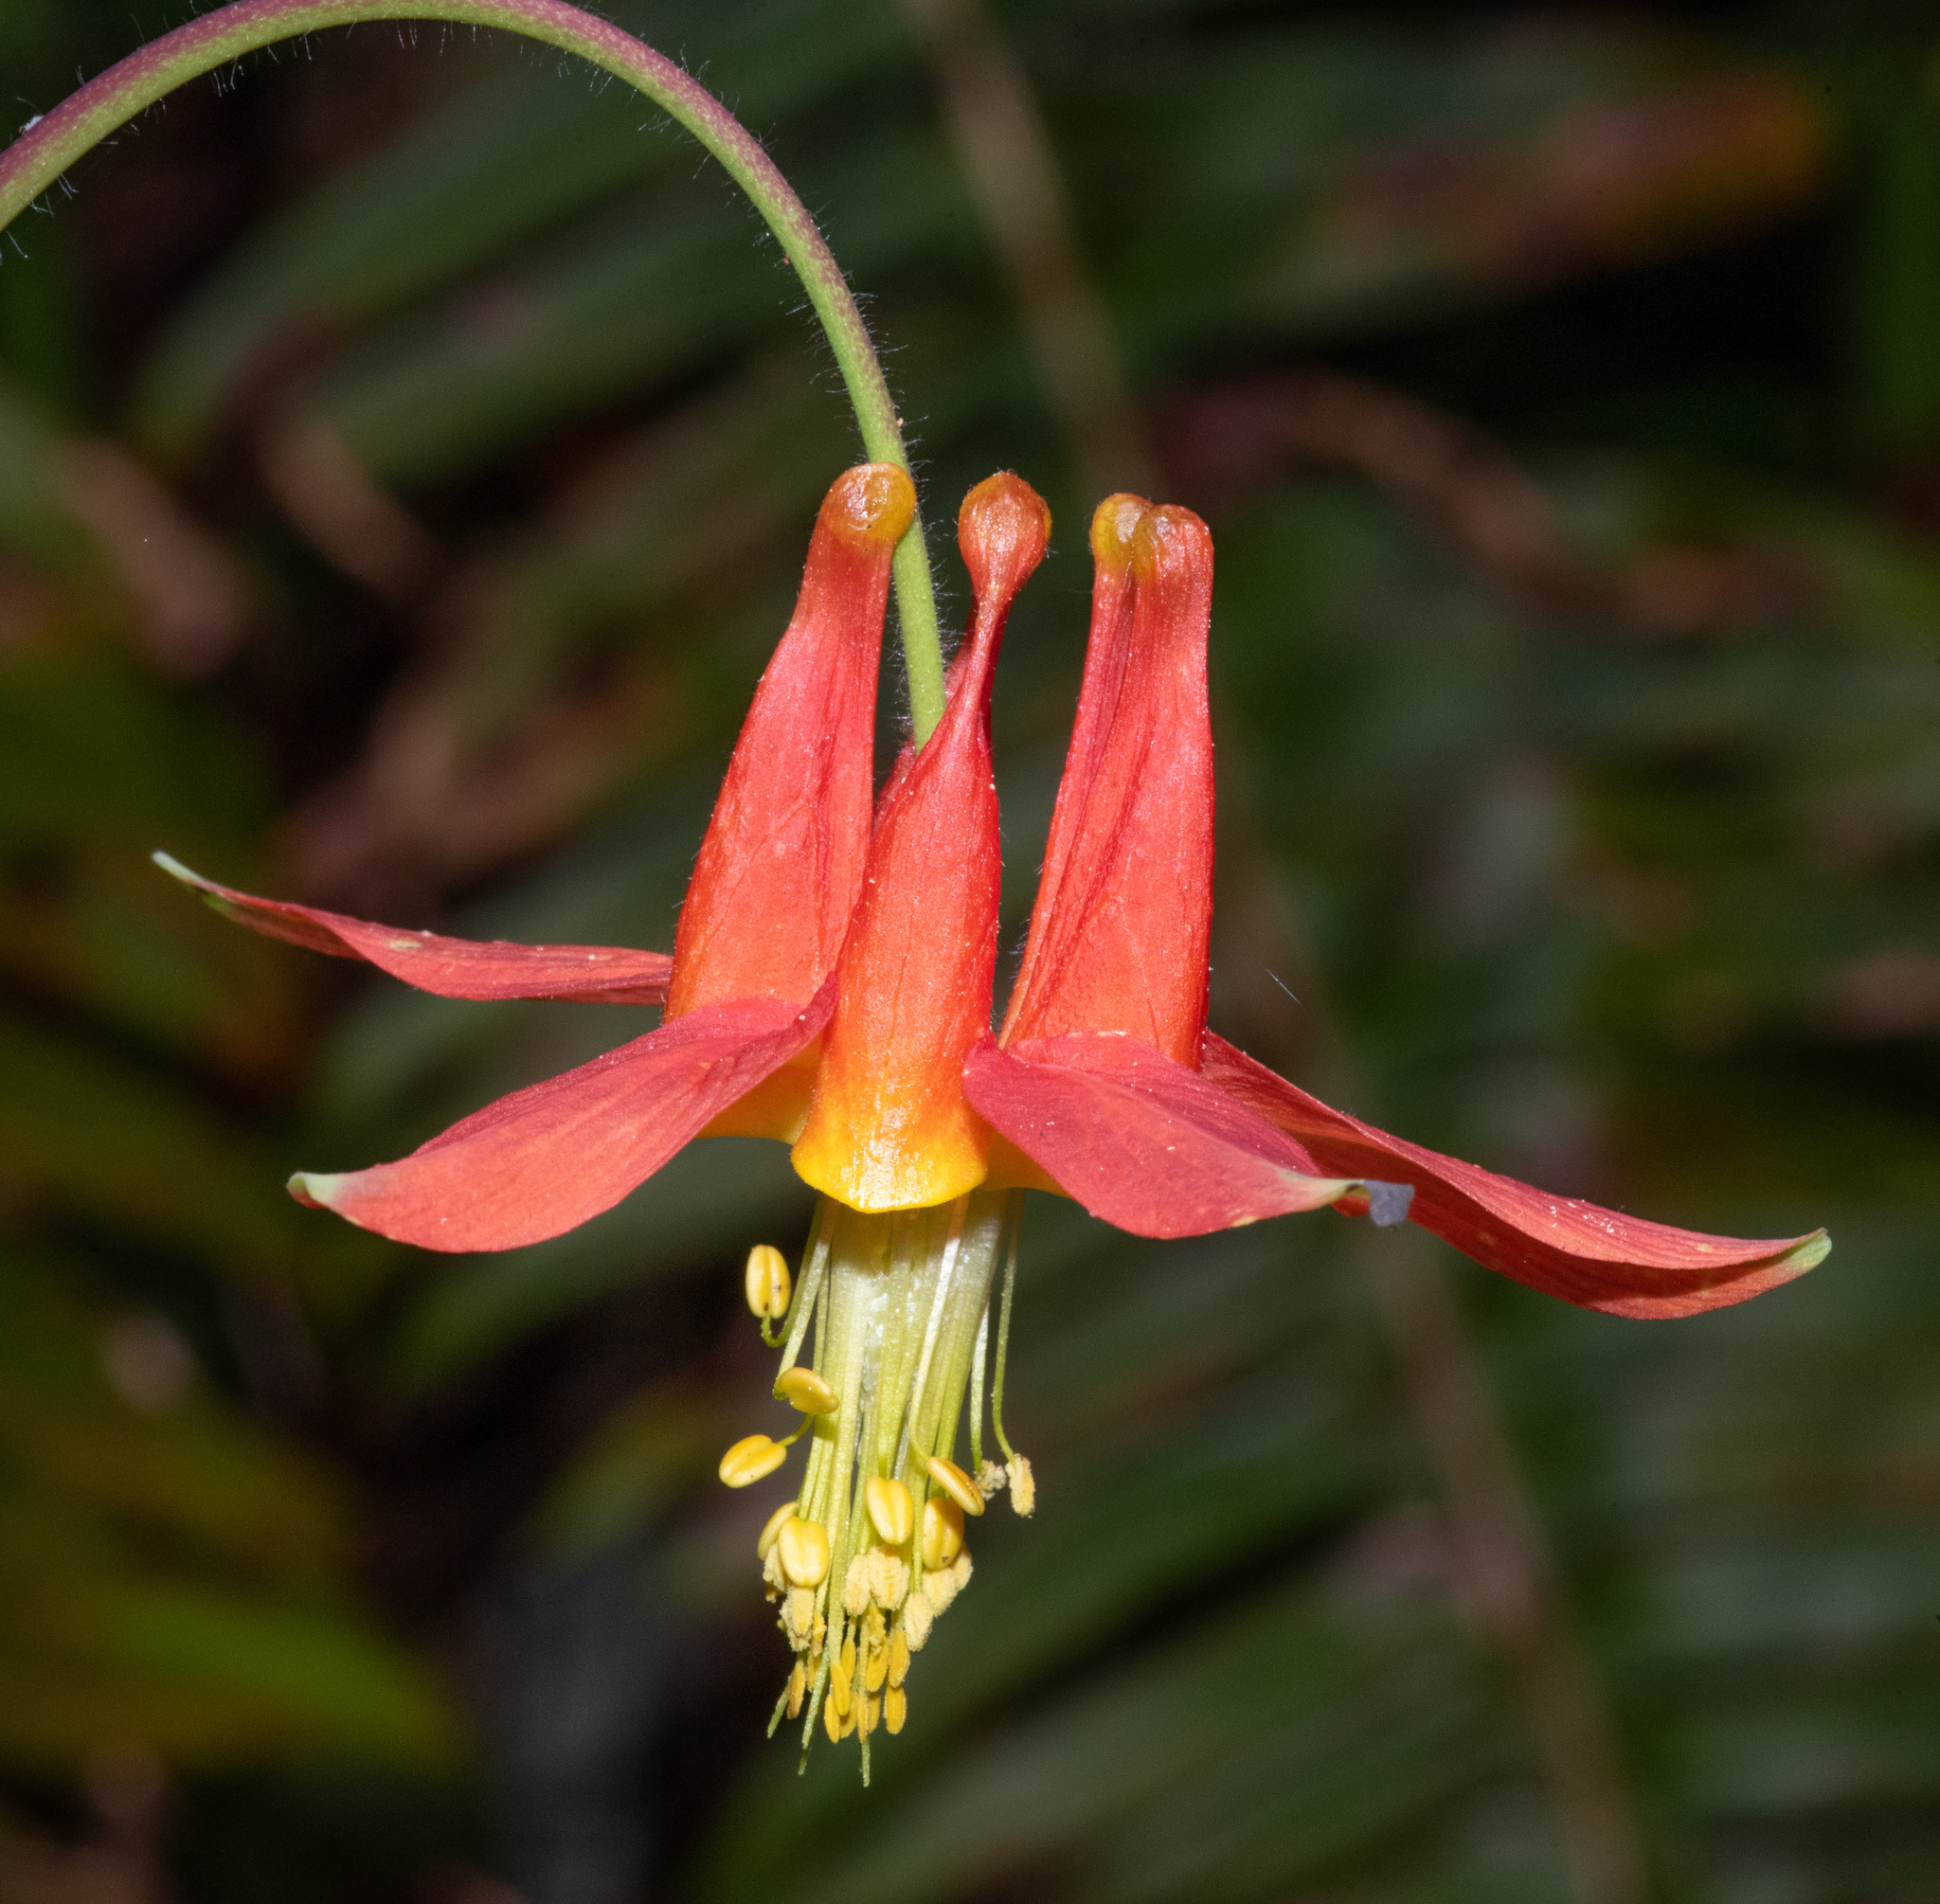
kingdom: Plantae
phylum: Tracheophyta
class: Magnoliopsida
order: Ranunculales
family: Ranunculaceae
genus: Aquilegia
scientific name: Aquilegia formosa
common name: Sitka columbine
